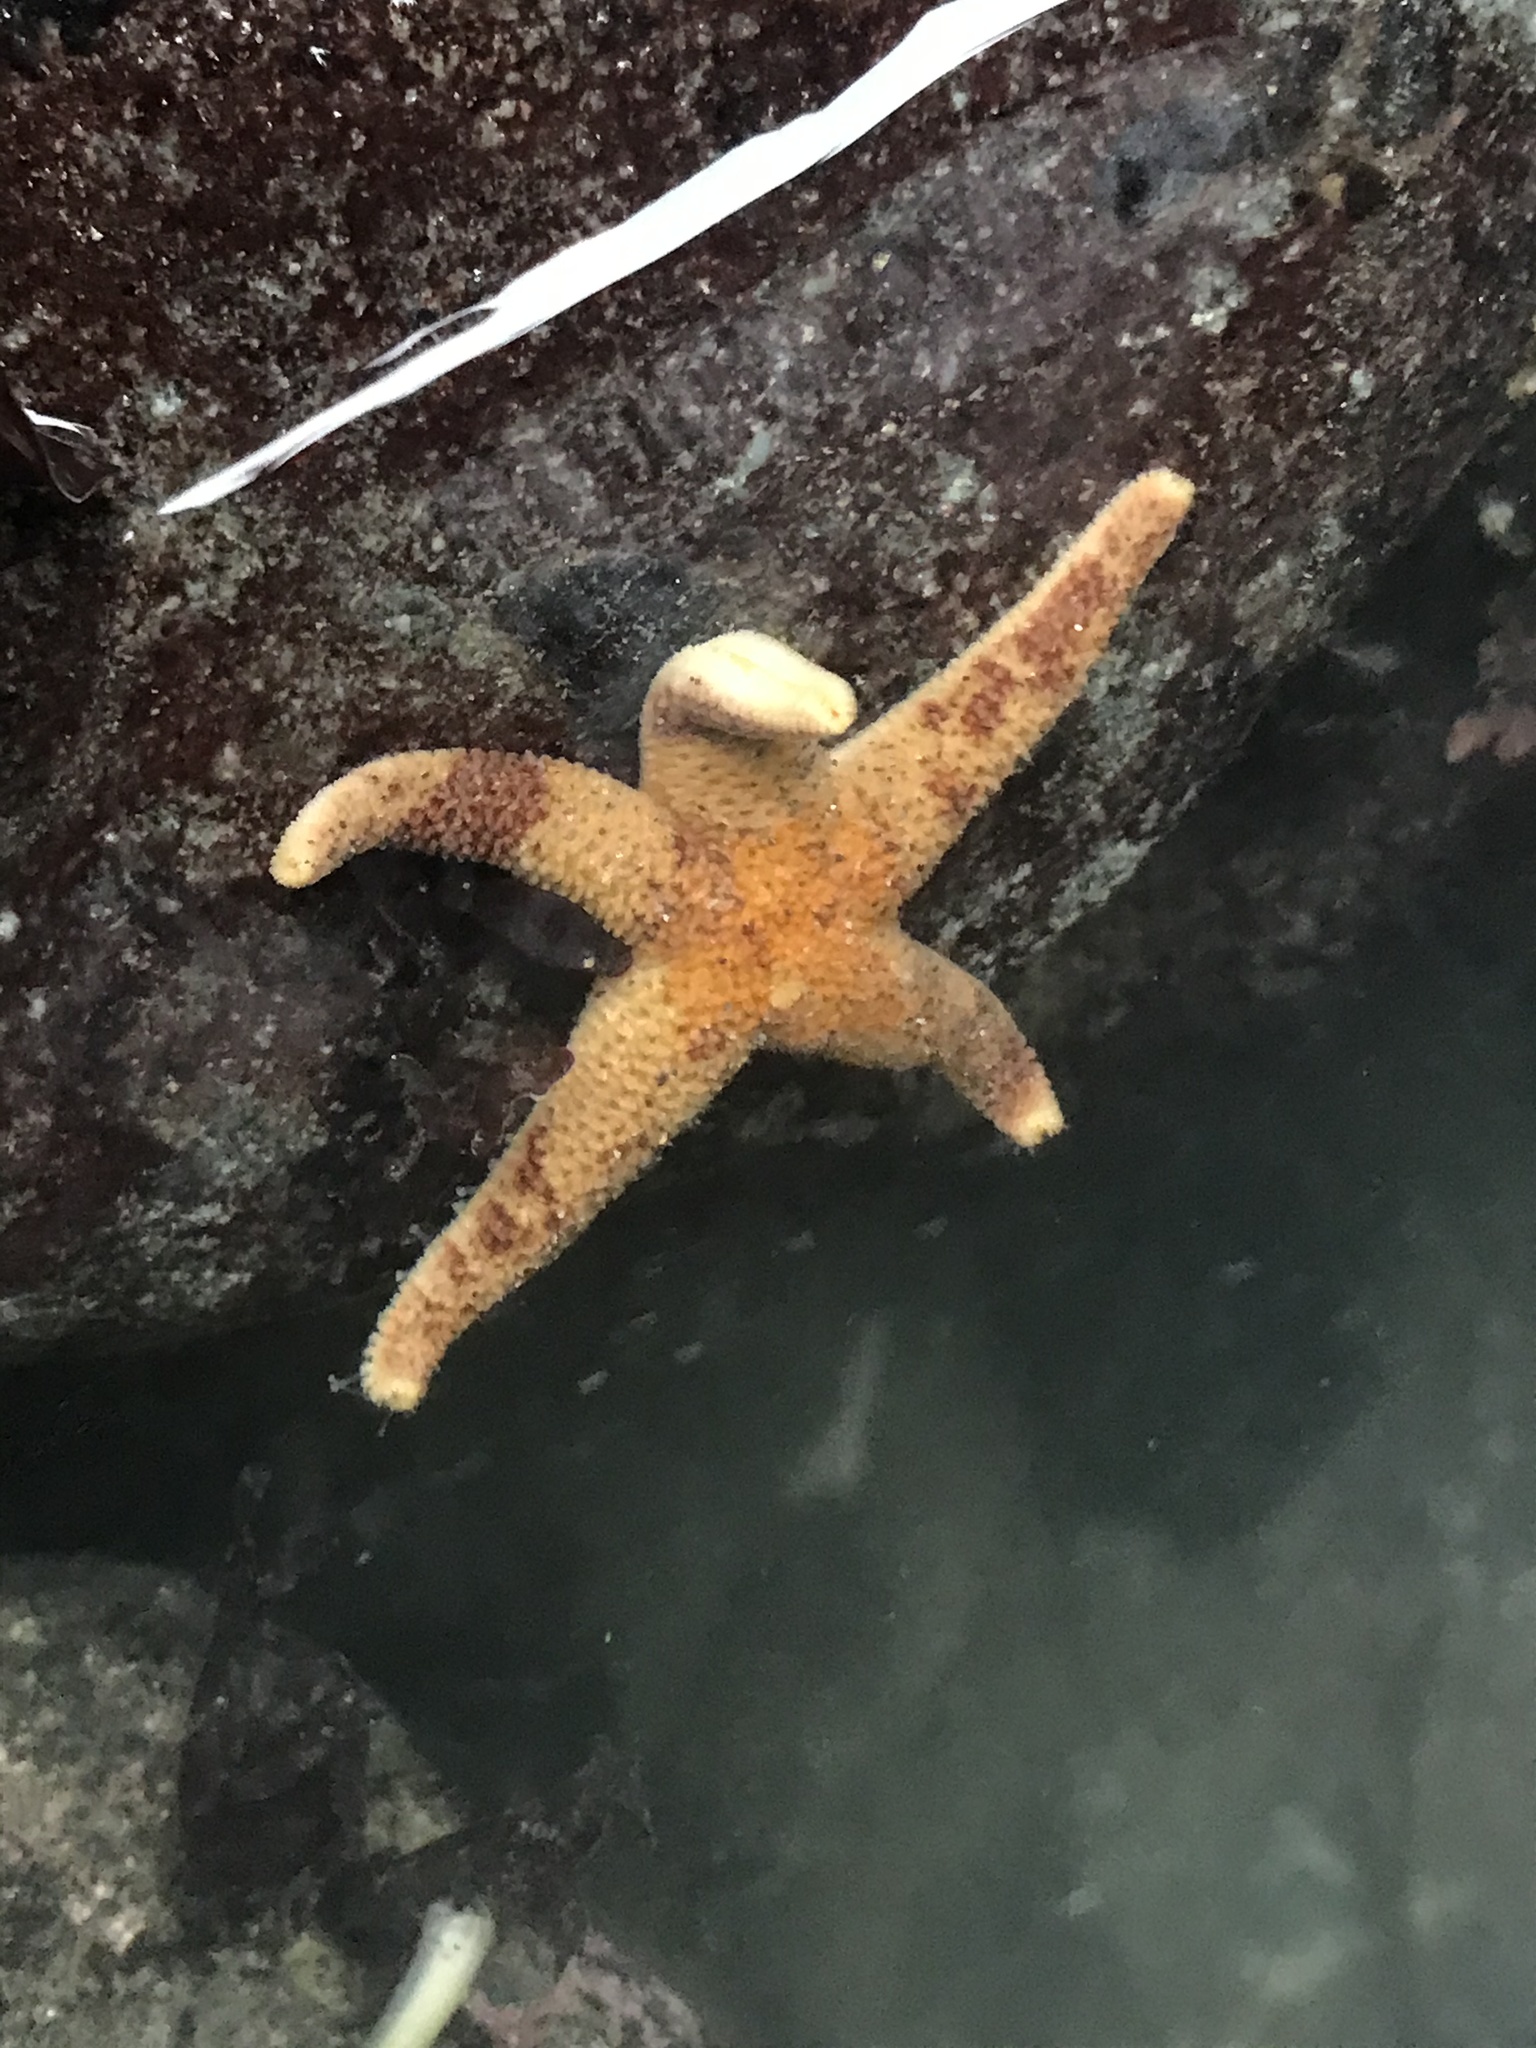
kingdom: Animalia
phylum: Echinodermata
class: Asteroidea
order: Spinulosida
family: Echinasteridae
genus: Henricia
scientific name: Henricia pumila
